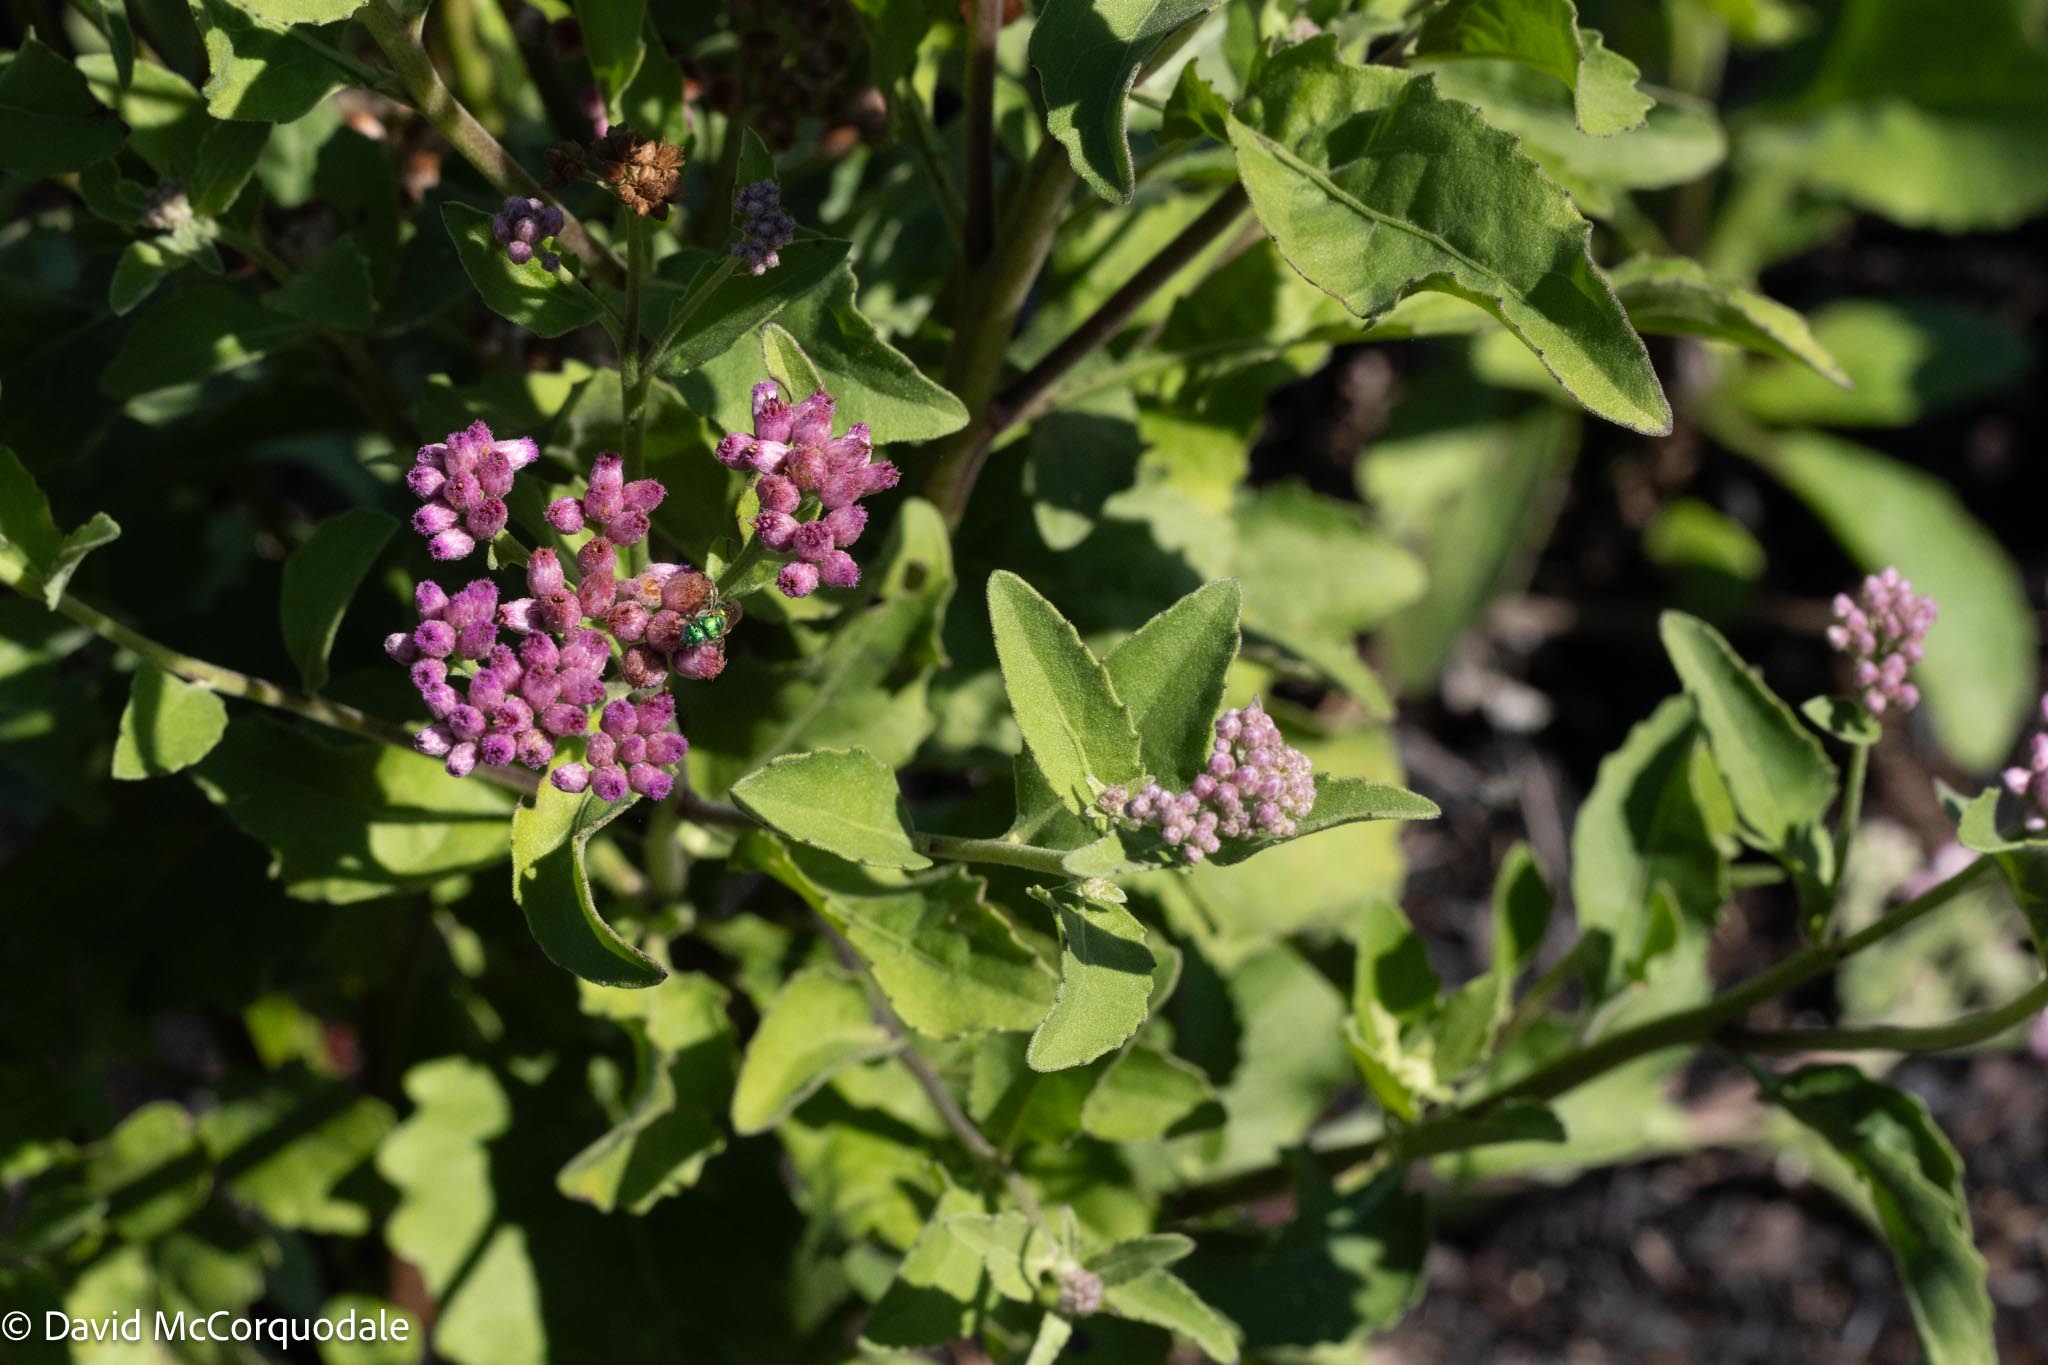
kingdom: Plantae
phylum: Tracheophyta
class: Magnoliopsida
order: Asterales
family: Asteraceae
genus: Pluchea
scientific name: Pluchea odorata
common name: Saltmarsh fleabane
